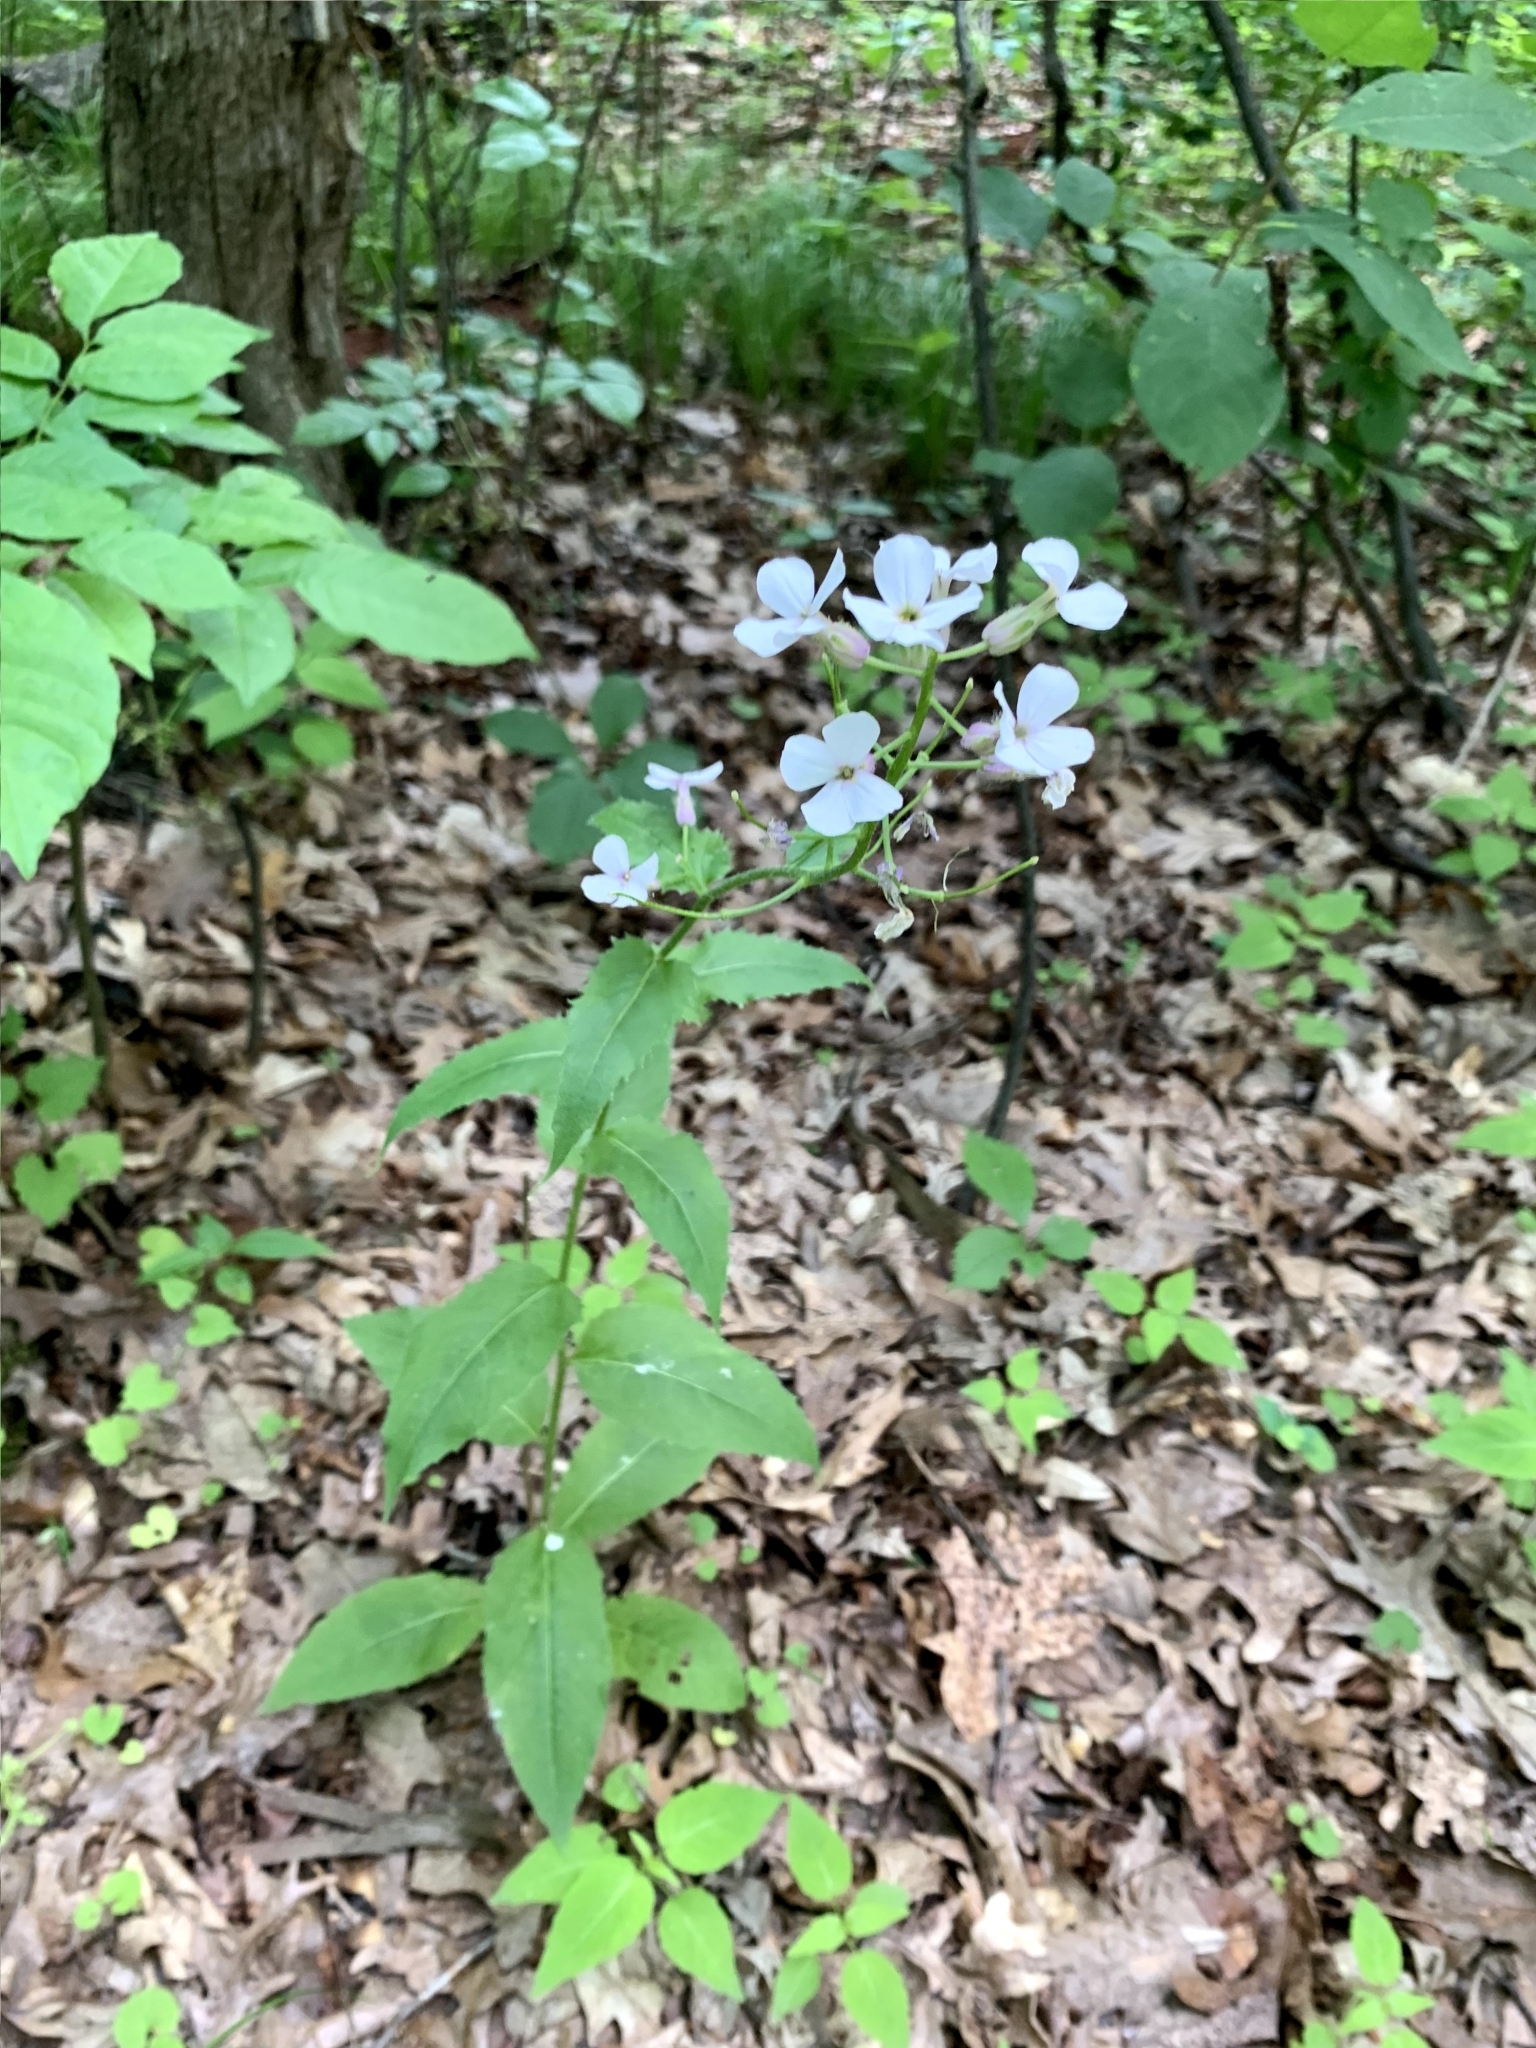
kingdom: Plantae
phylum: Tracheophyta
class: Magnoliopsida
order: Brassicales
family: Brassicaceae
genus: Hesperis
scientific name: Hesperis matronalis
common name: Dame's-violet
